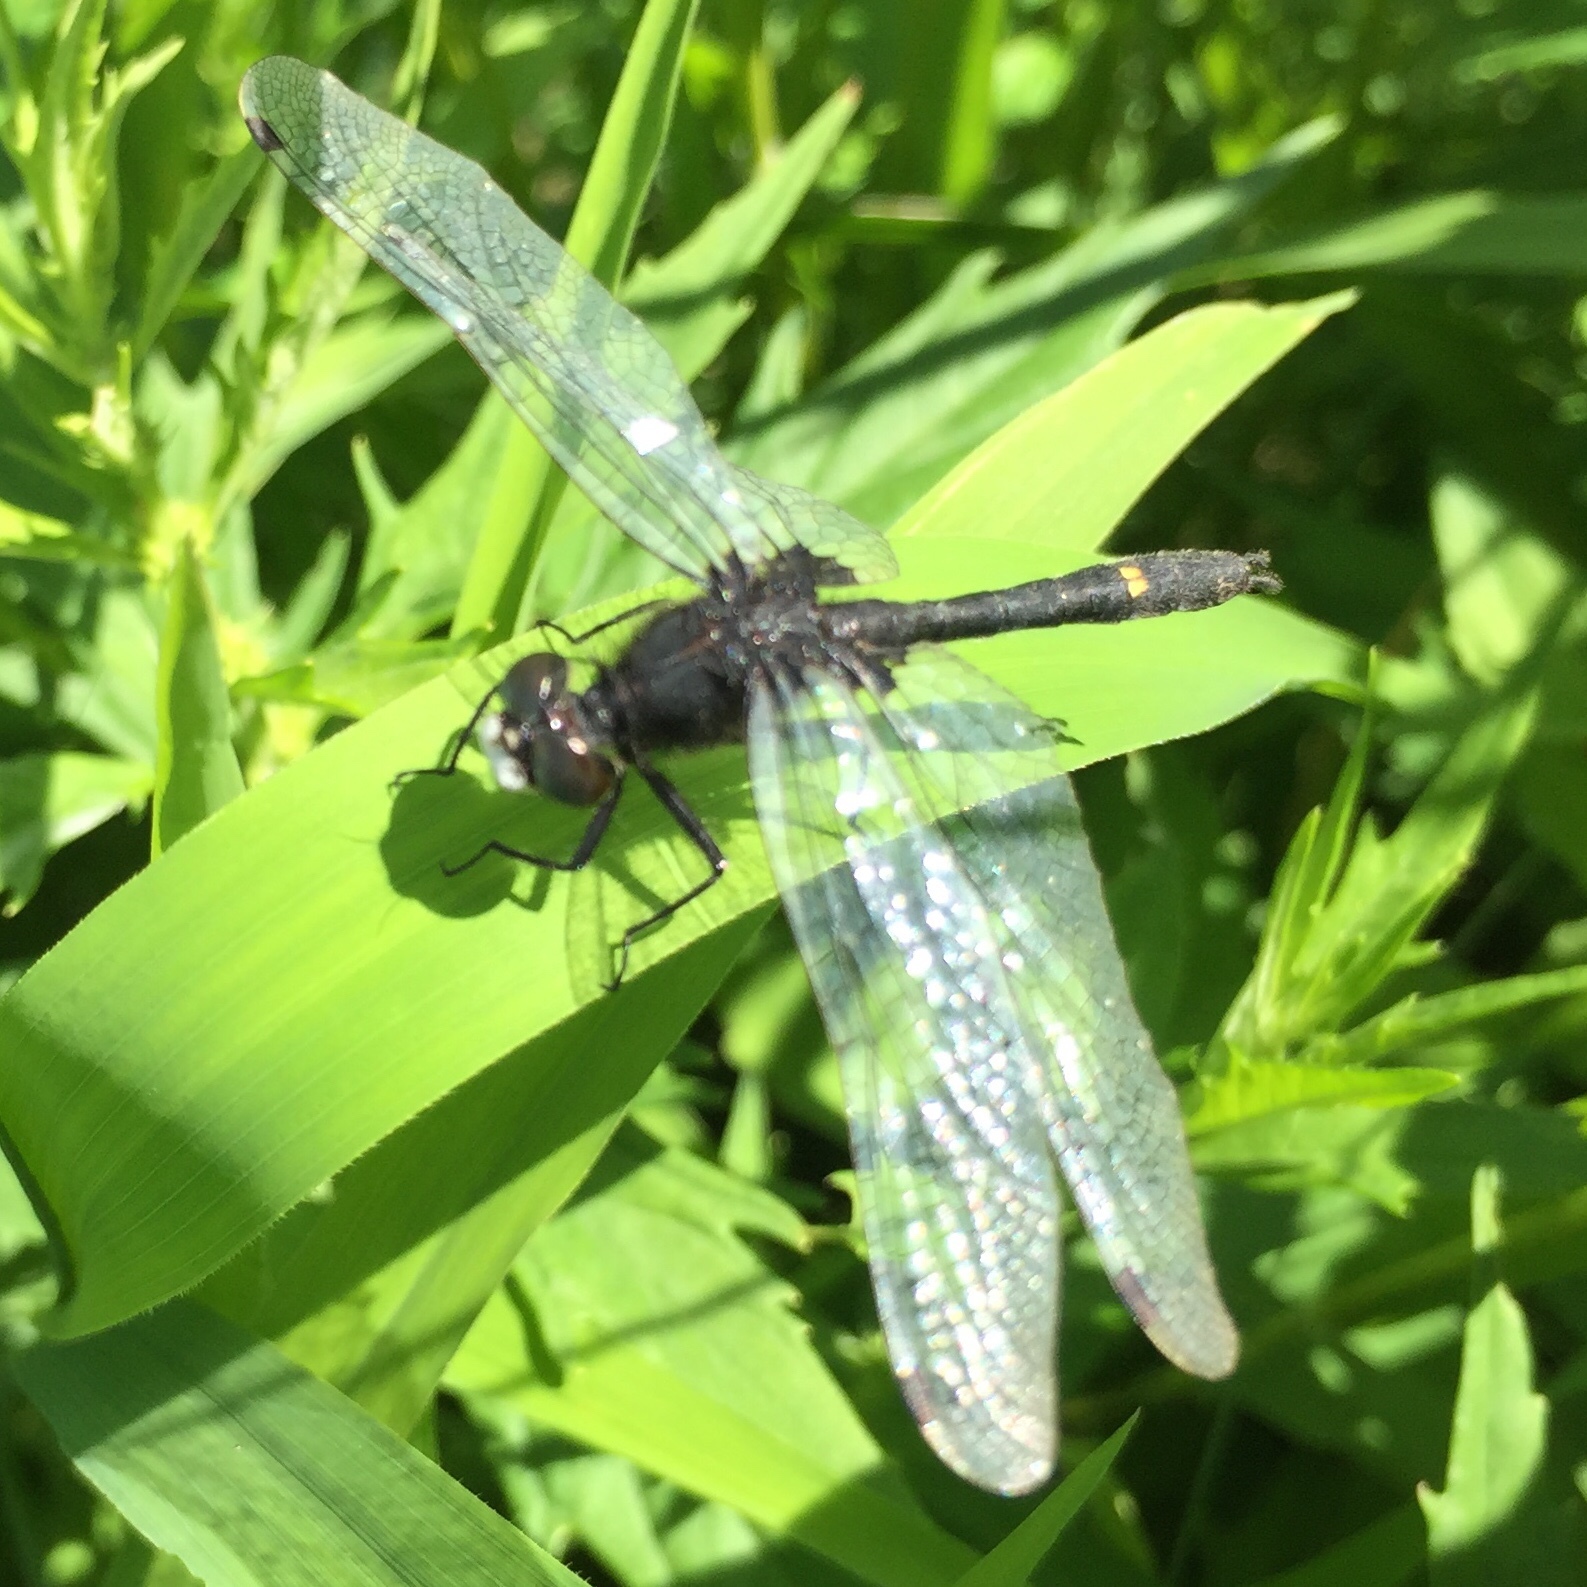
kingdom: Animalia
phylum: Arthropoda
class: Insecta
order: Odonata
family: Libellulidae
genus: Leucorrhinia
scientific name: Leucorrhinia intacta
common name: Dot-tailed whiteface
